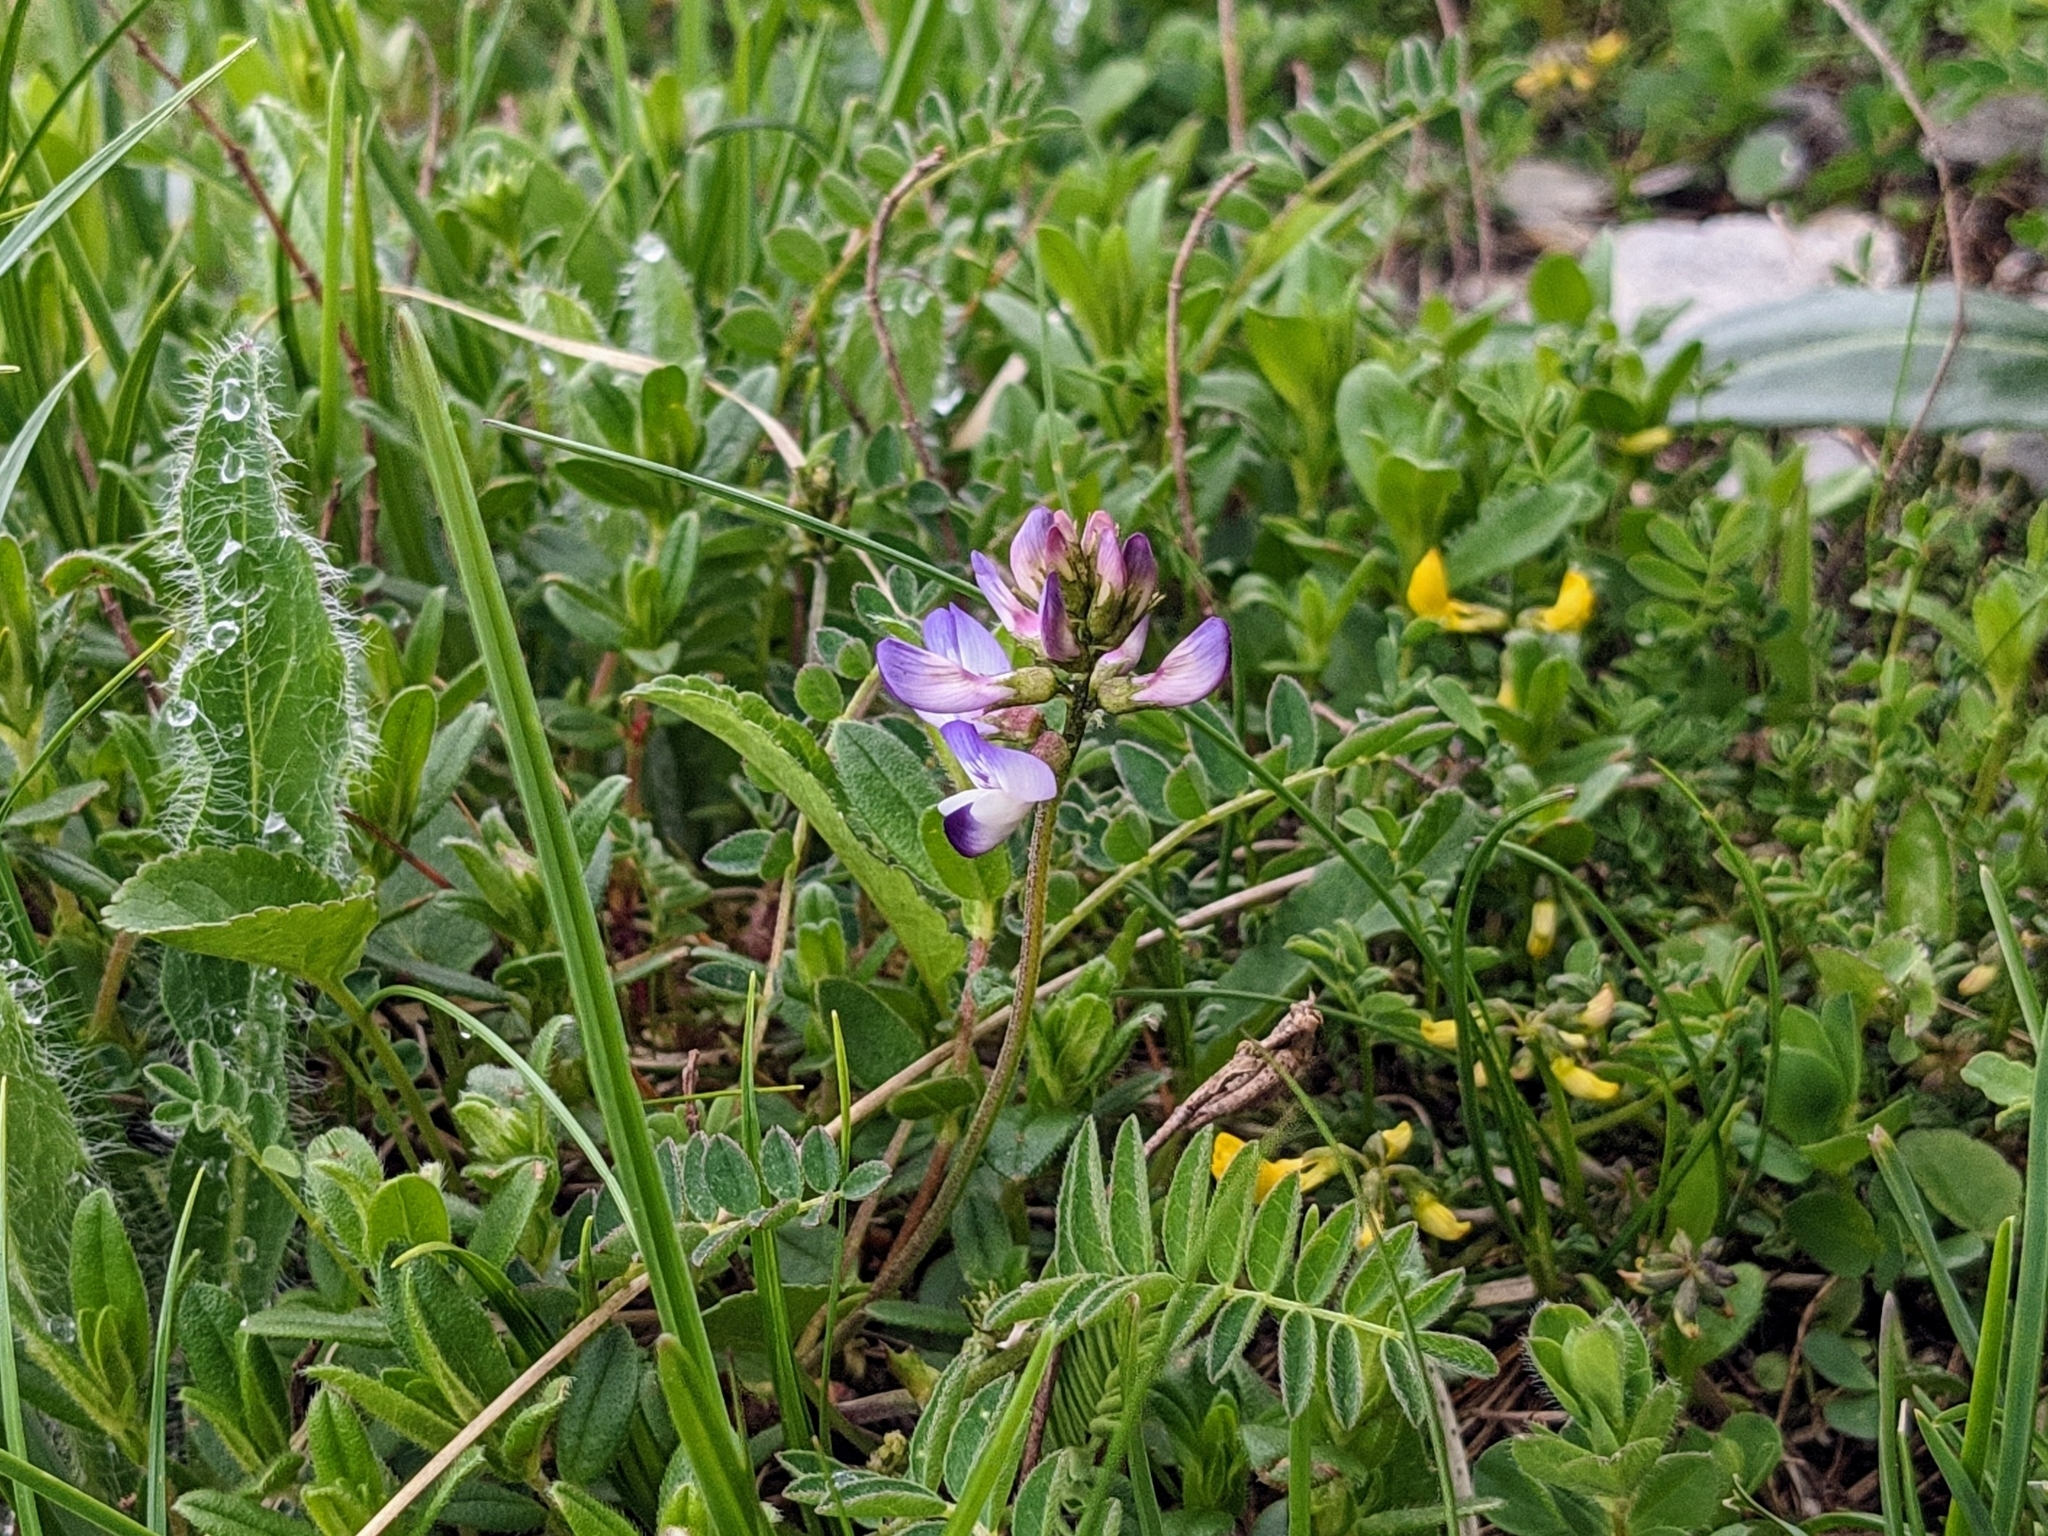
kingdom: Plantae
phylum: Tracheophyta
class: Magnoliopsida
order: Fabales
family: Fabaceae
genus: Astragalus
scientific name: Astragalus alpinus
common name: Alpine milk-vetch
